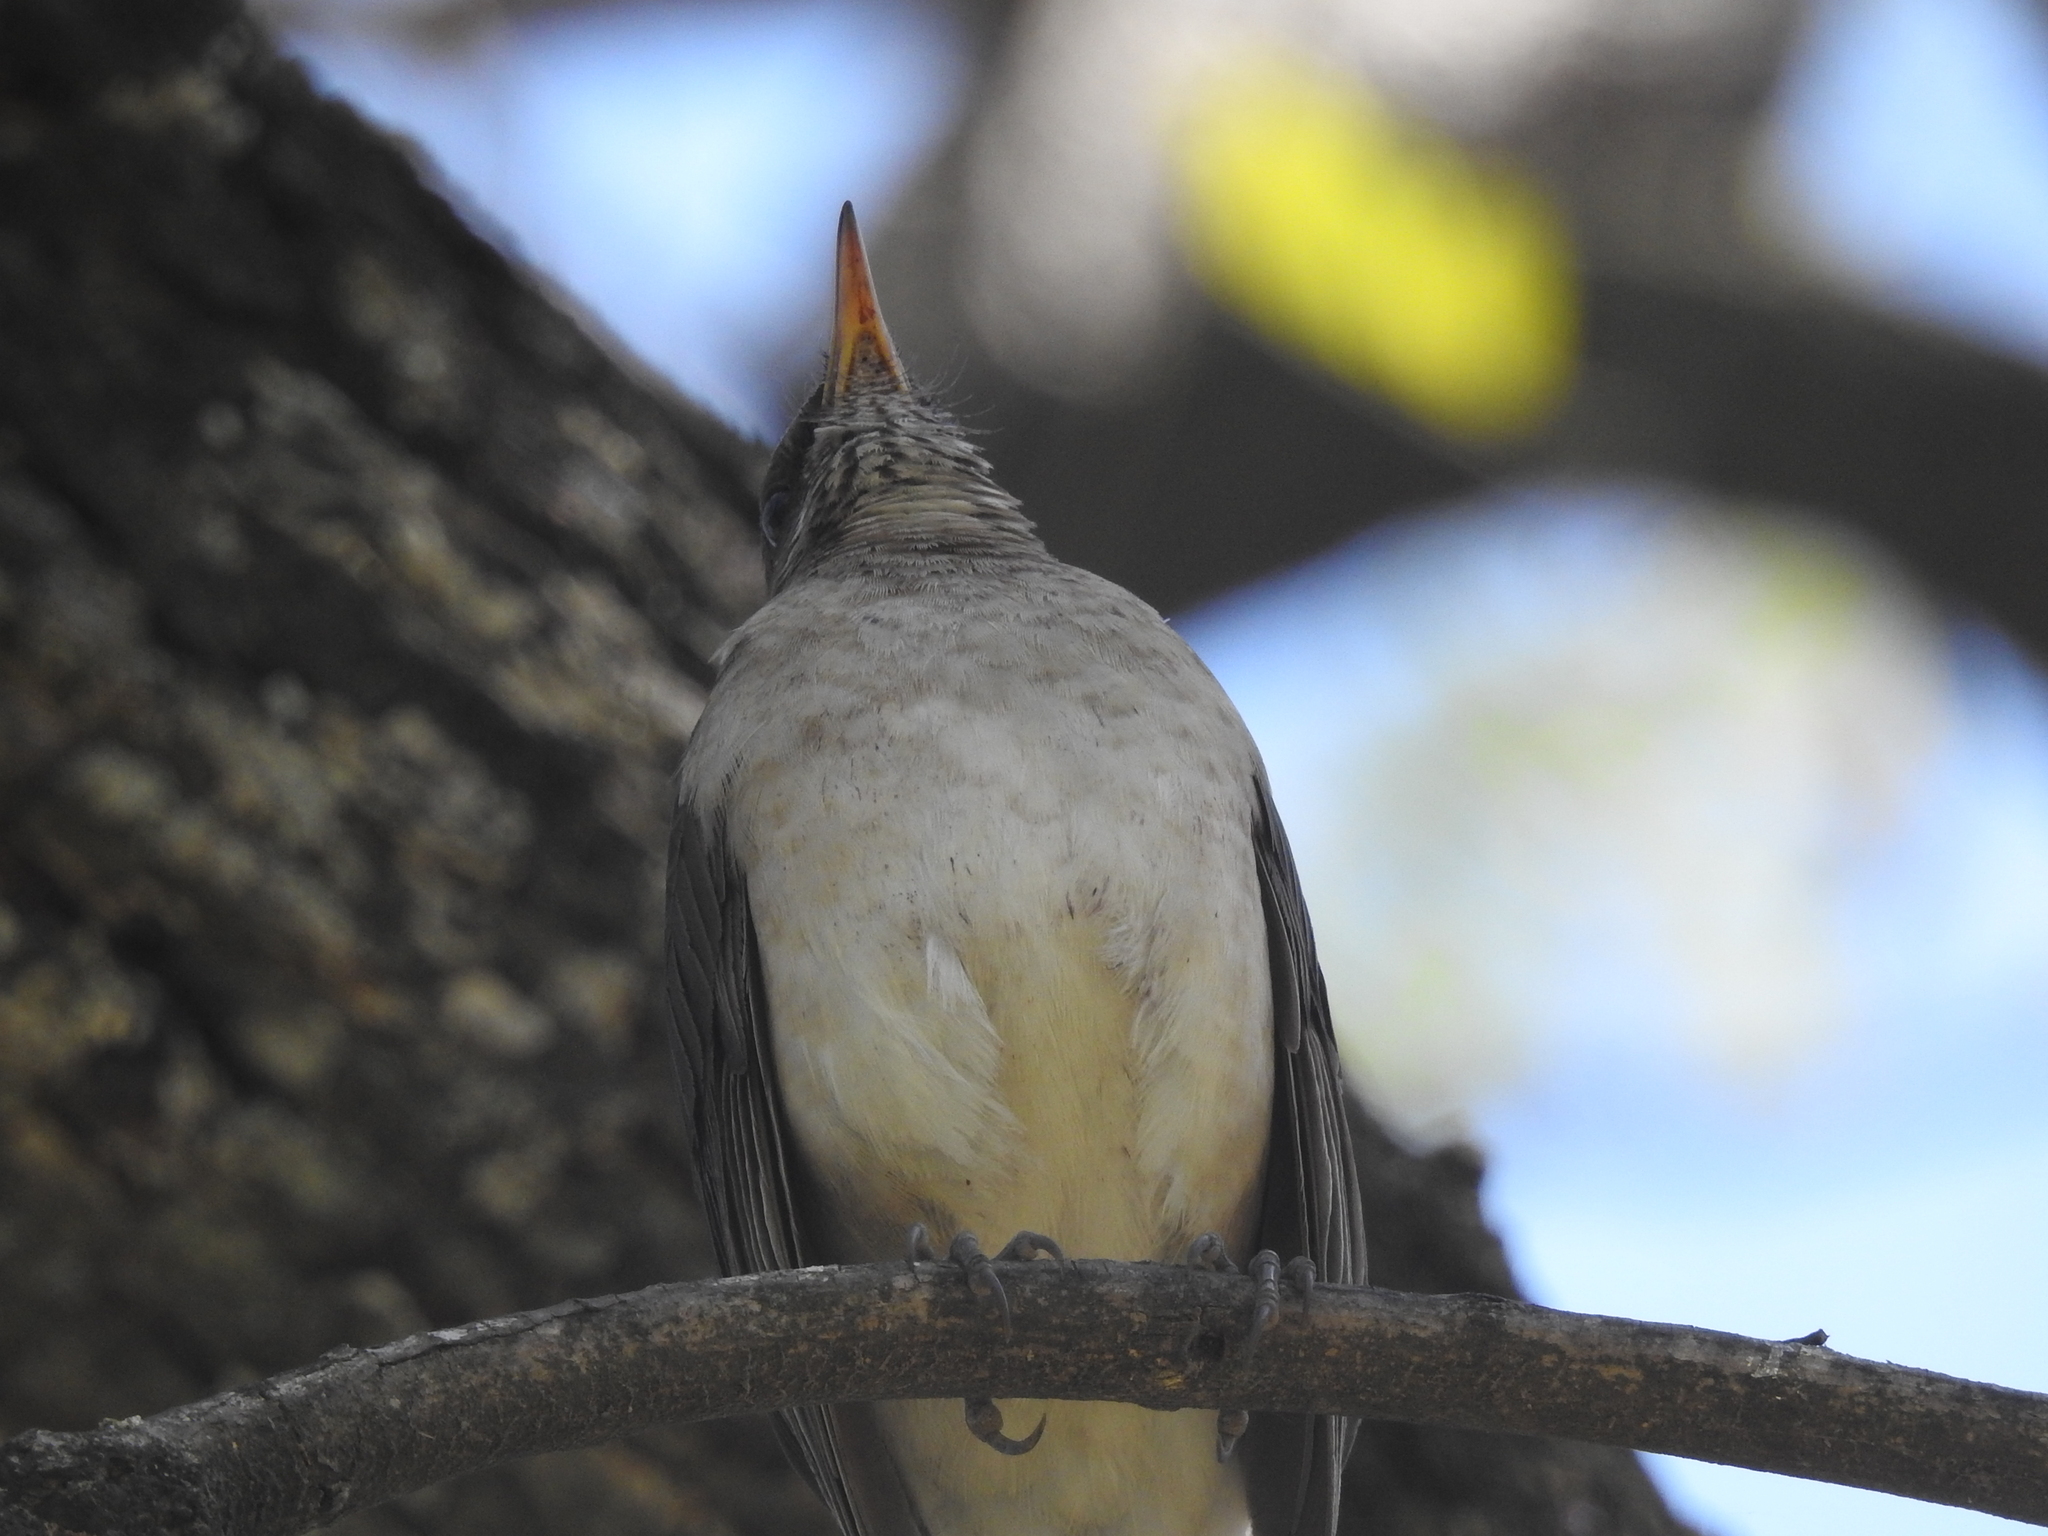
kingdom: Animalia
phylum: Chordata
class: Aves
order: Passeriformes
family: Turdidae
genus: Turdus
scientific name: Turdus amaurochalinus
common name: Creamy-bellied thrush
